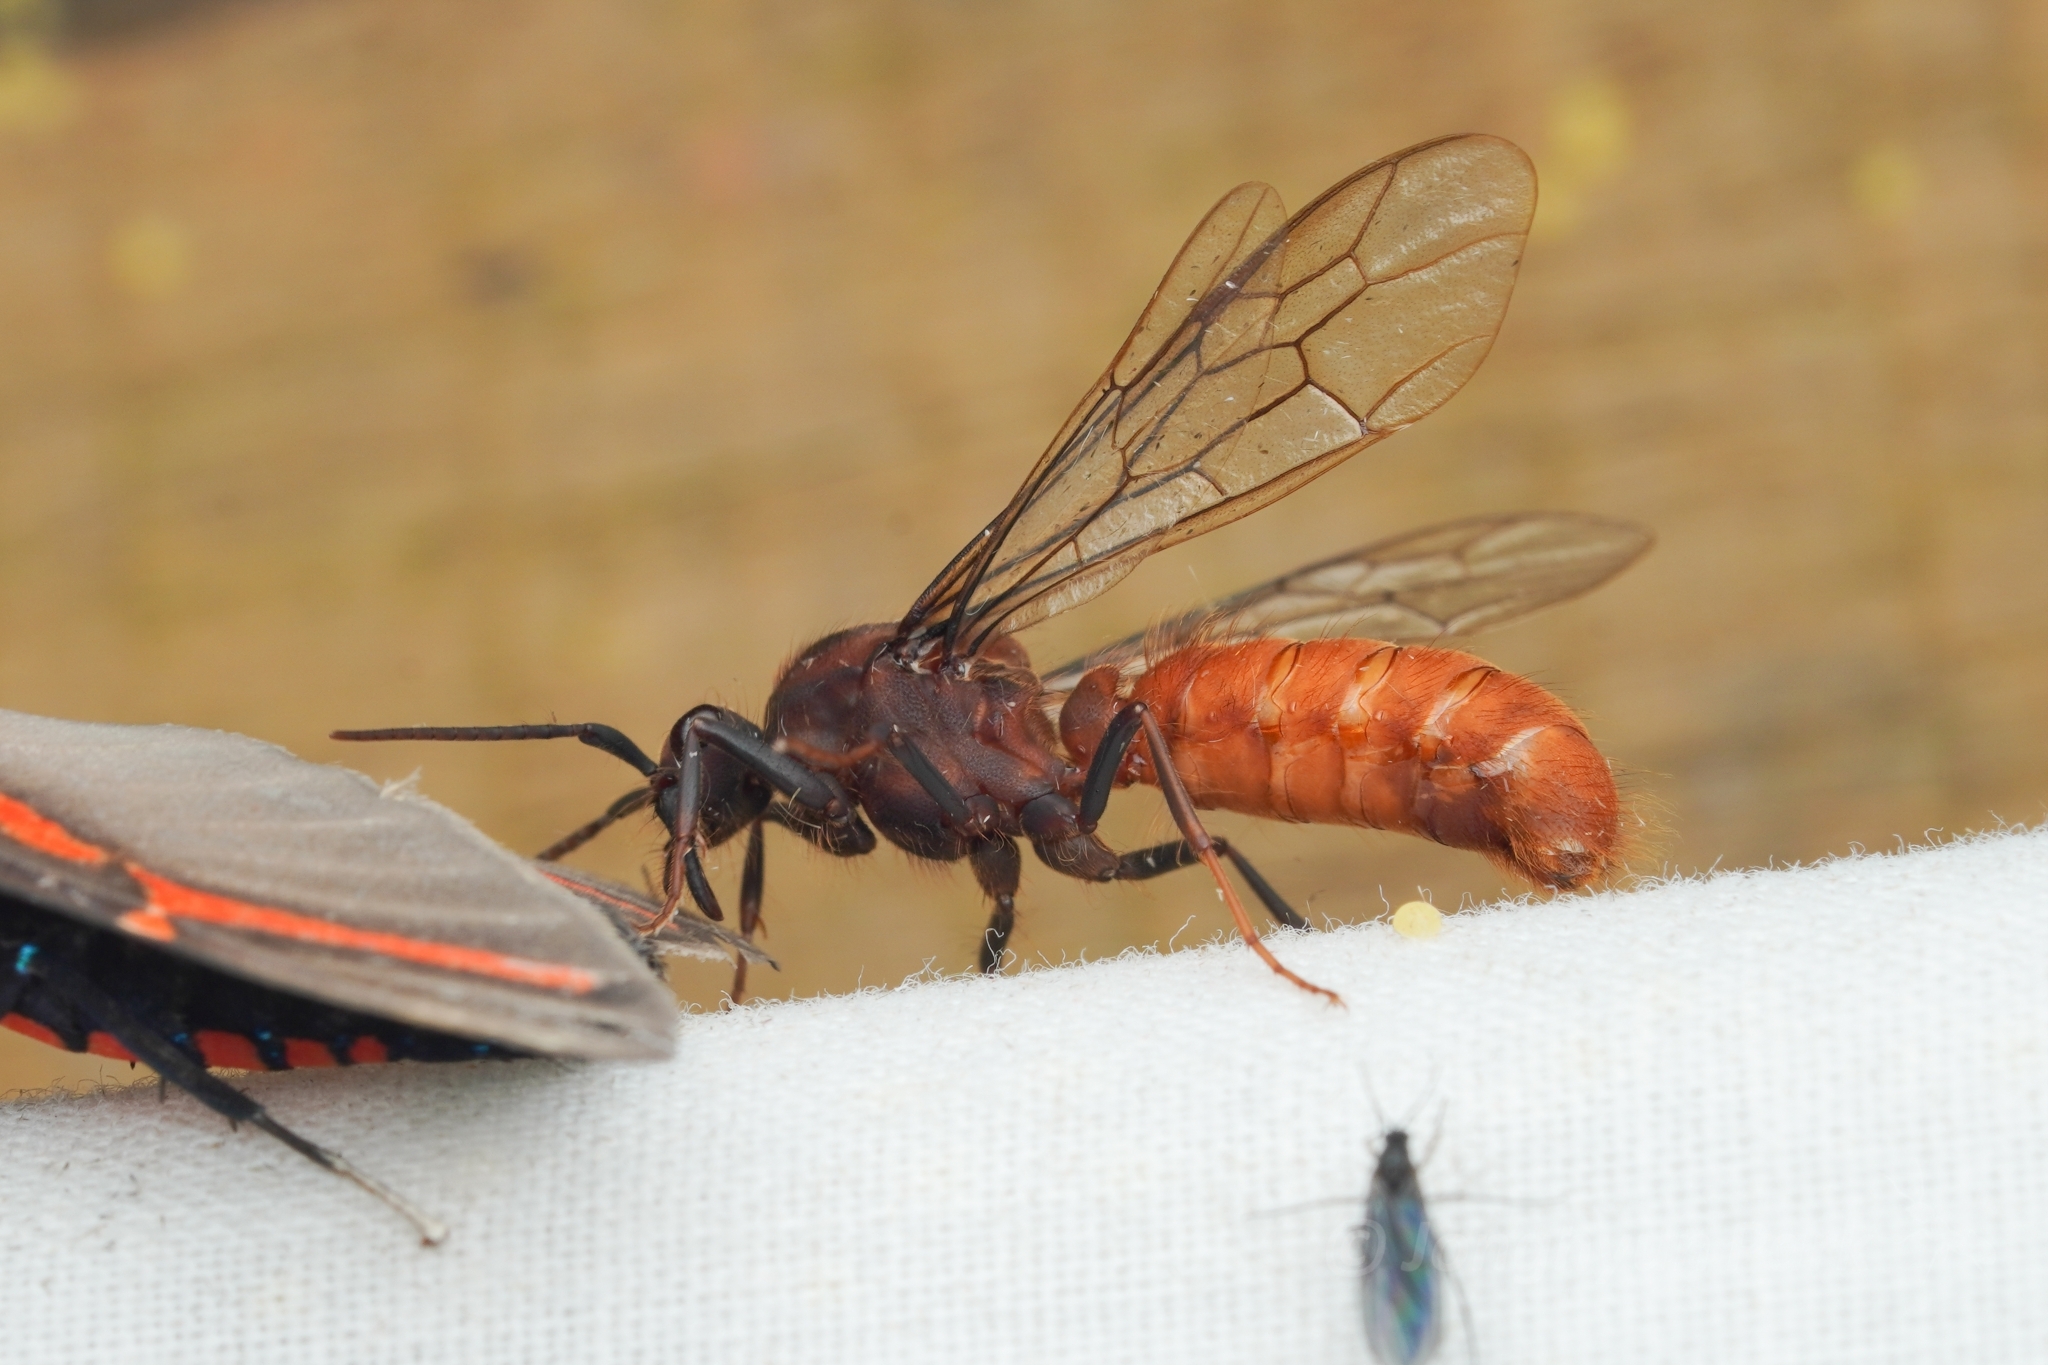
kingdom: Animalia
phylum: Arthropoda
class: Insecta
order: Hymenoptera
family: Formicidae
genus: Eciton
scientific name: Eciton burchellii
